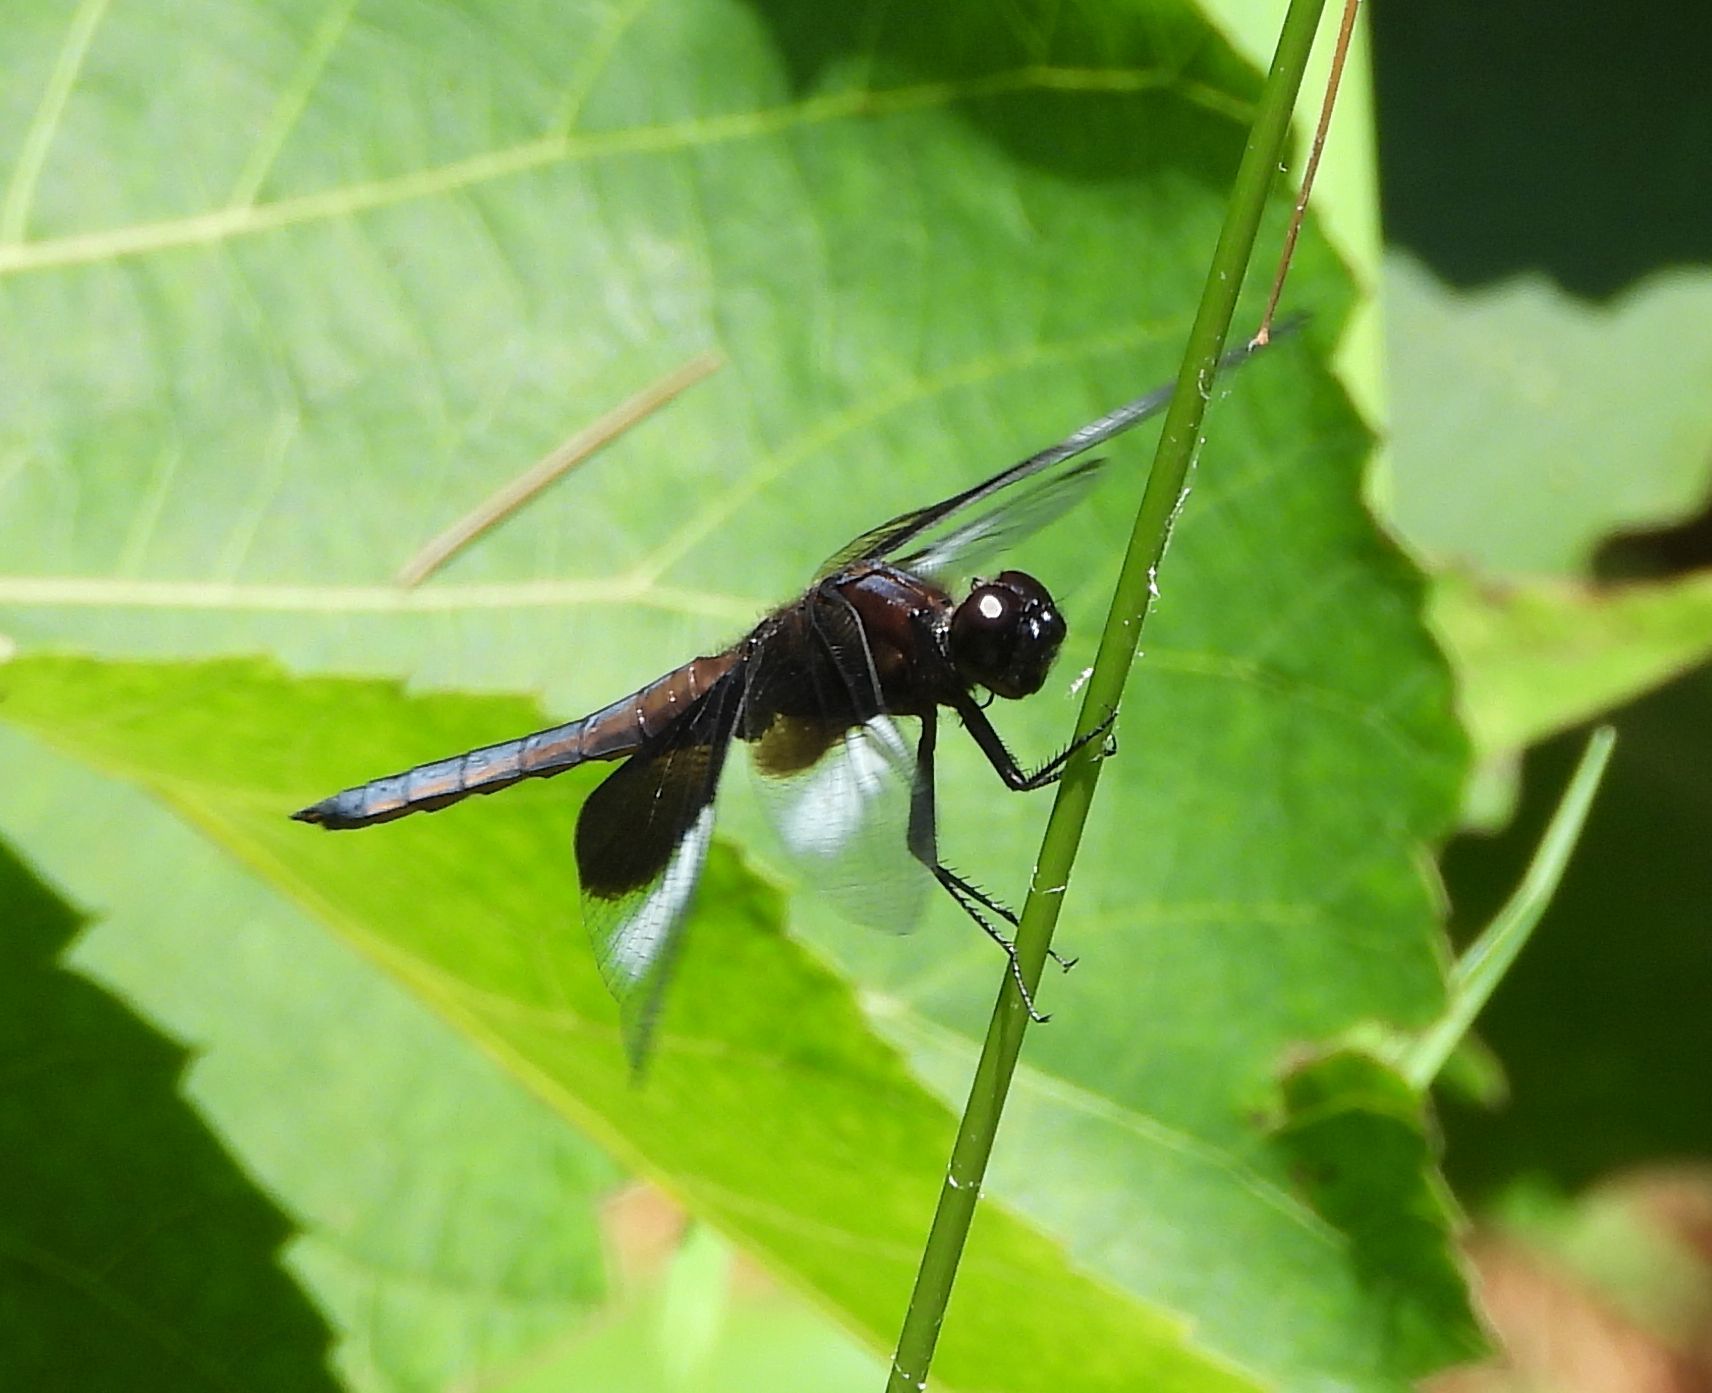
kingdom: Animalia
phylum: Arthropoda
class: Insecta
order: Odonata
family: Libellulidae
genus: Libellula
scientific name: Libellula luctuosa
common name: Widow skimmer
